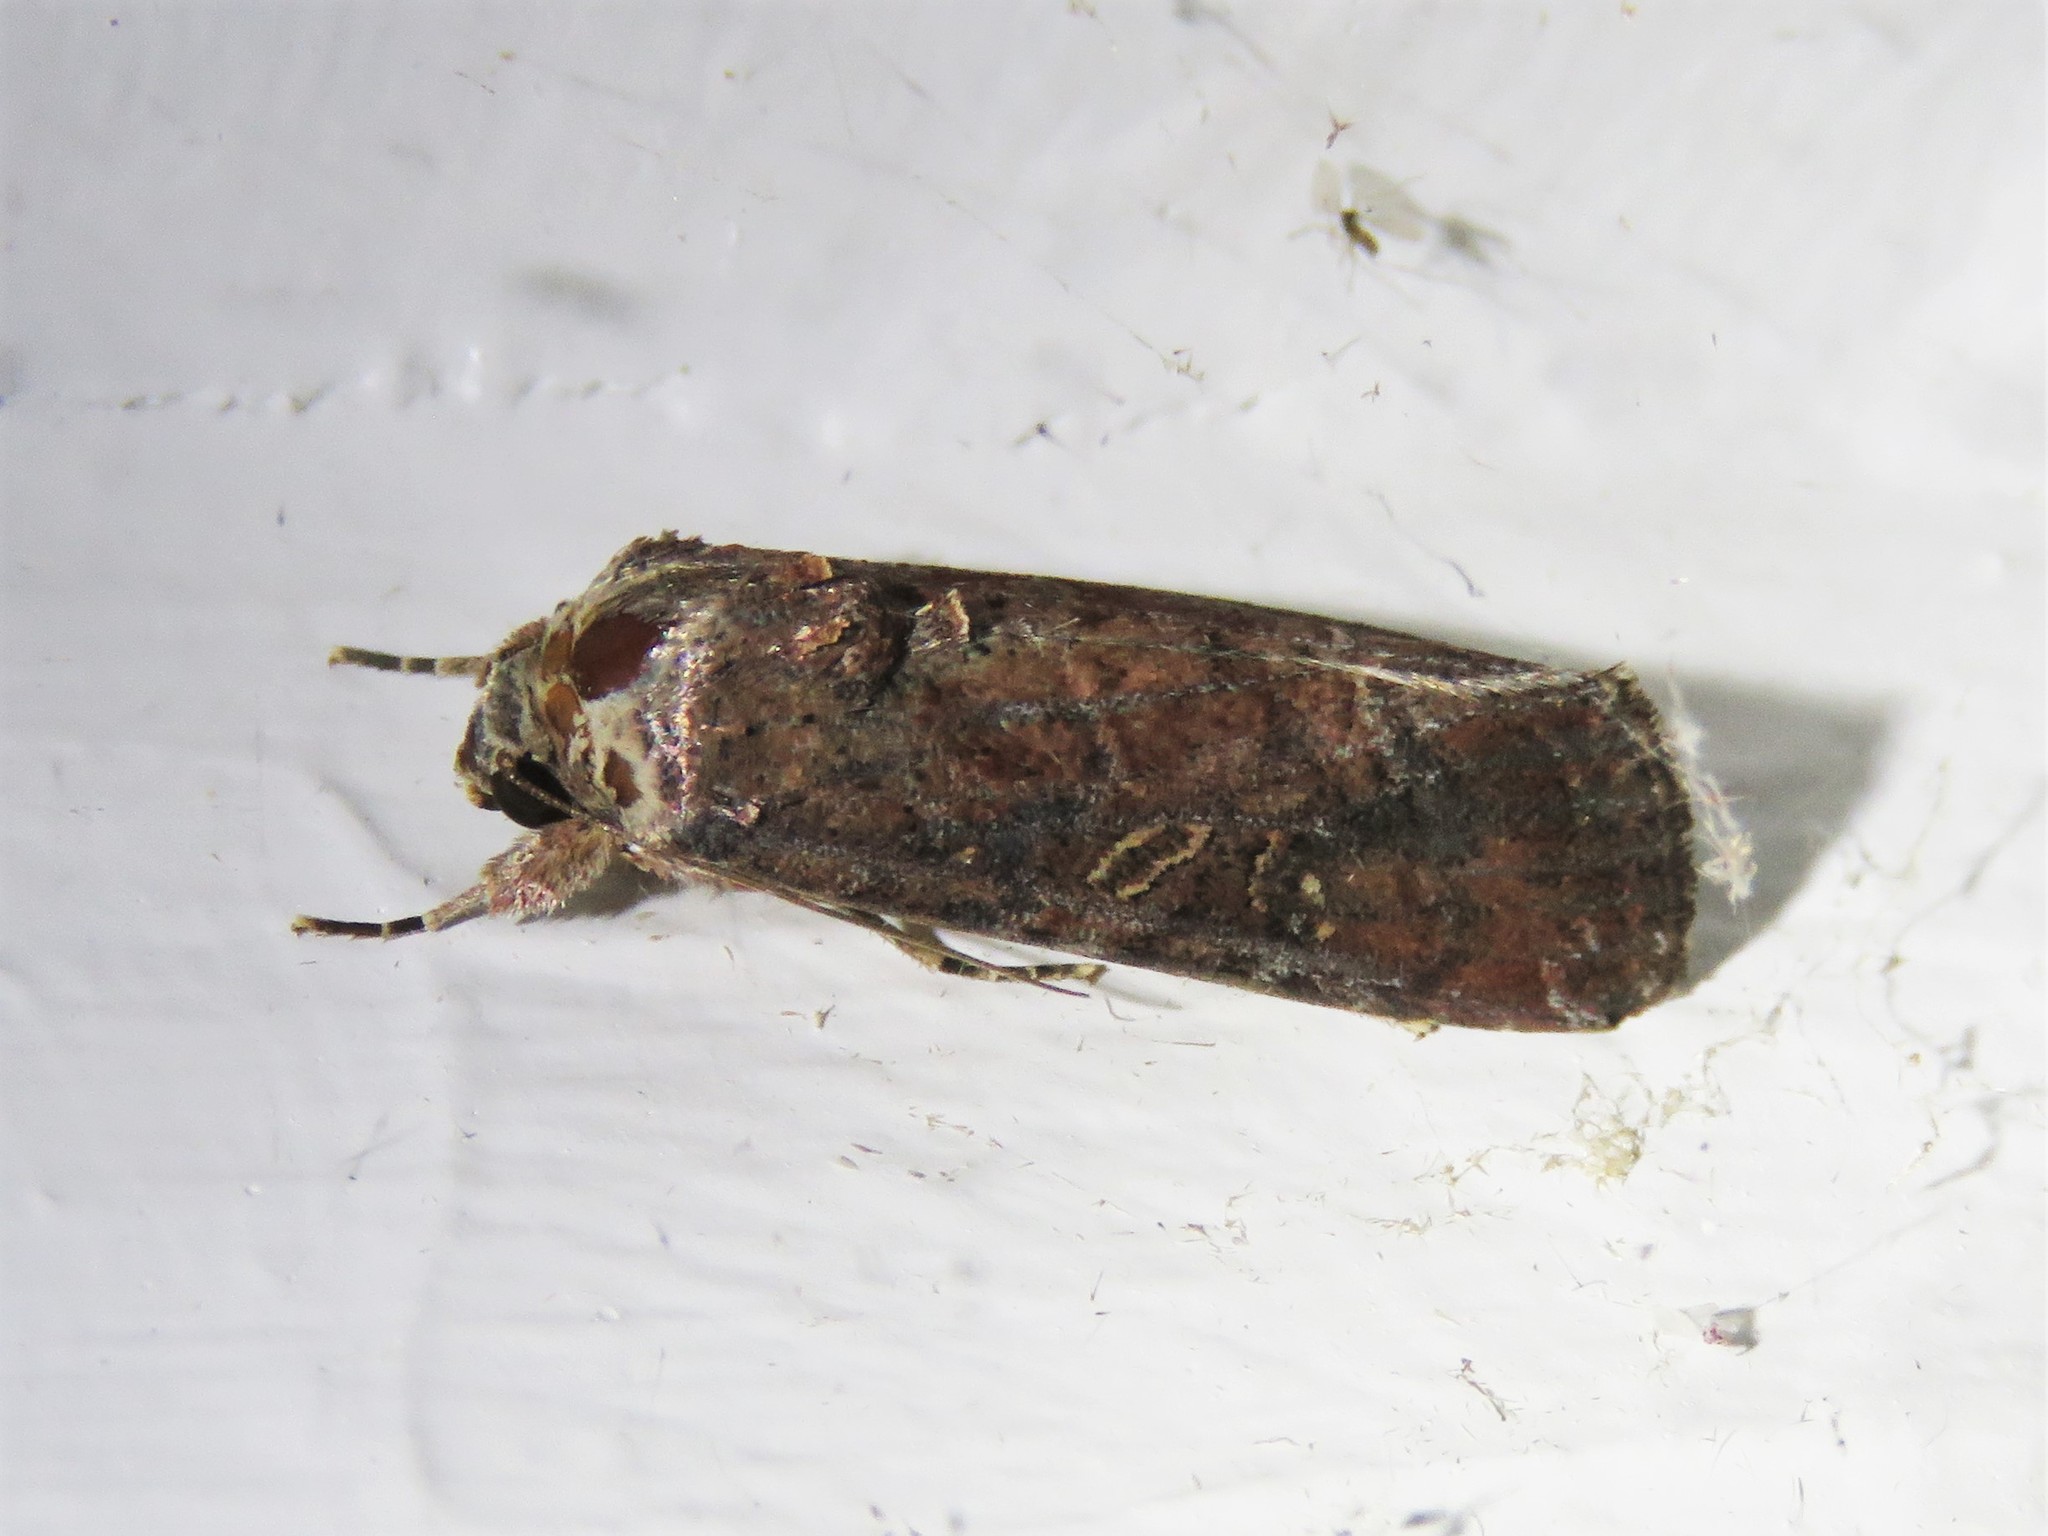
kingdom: Animalia
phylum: Arthropoda
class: Insecta
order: Lepidoptera
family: Noctuidae
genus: Spodoptera
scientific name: Spodoptera frugiperda
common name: Fall armyworm
